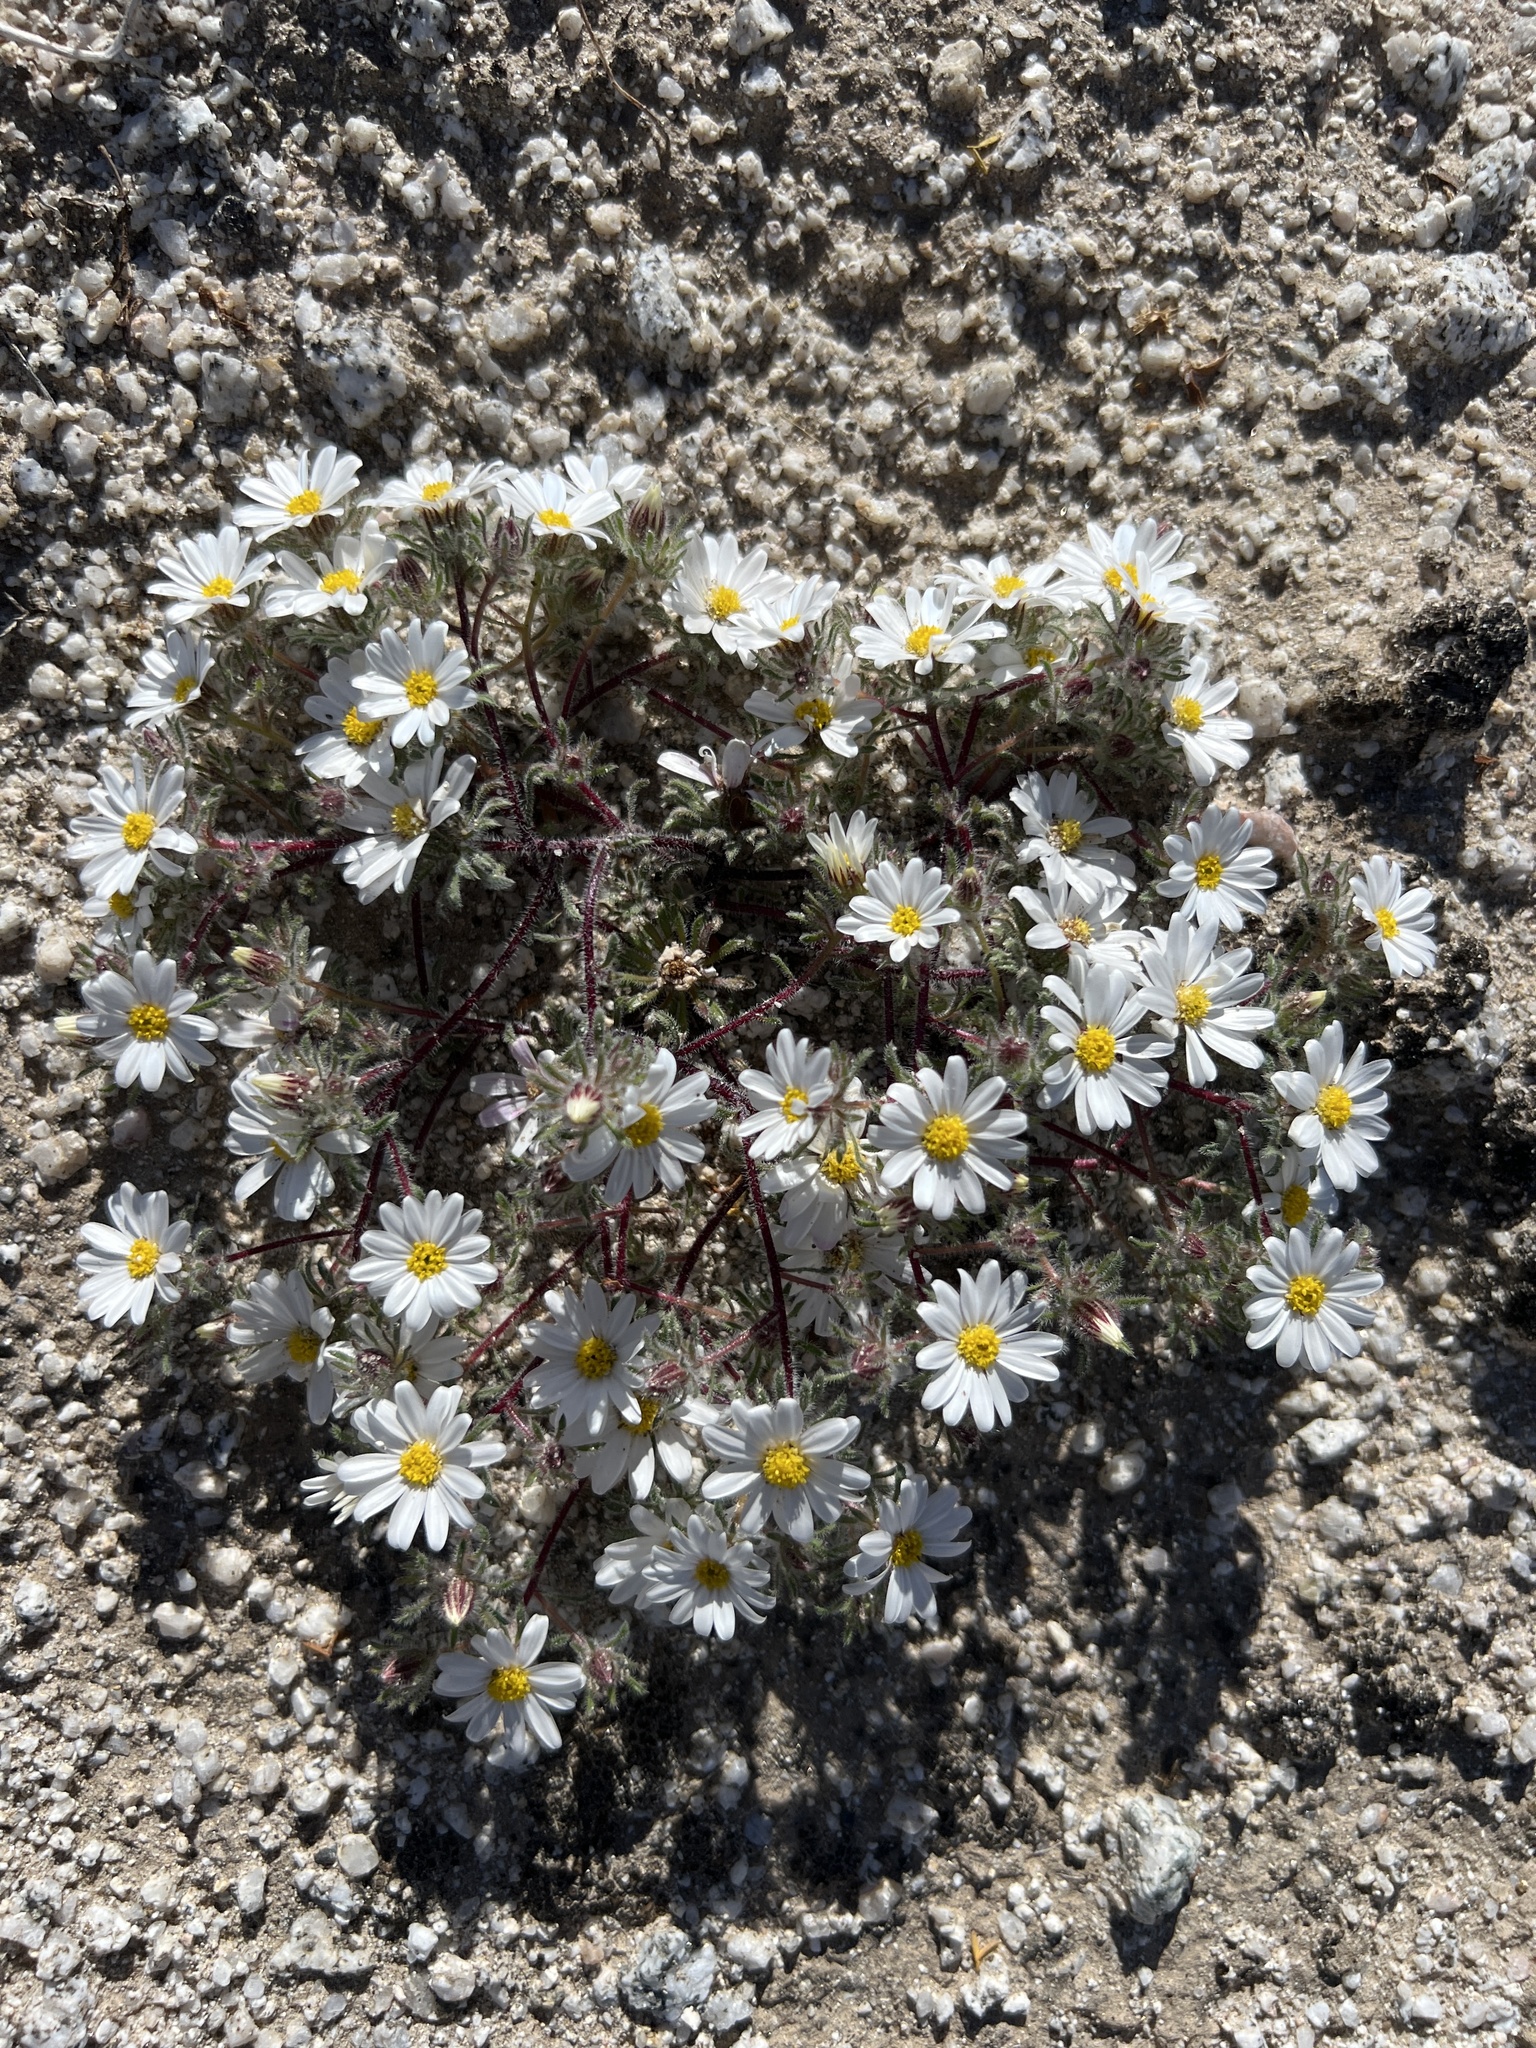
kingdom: Plantae
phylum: Tracheophyta
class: Magnoliopsida
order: Asterales
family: Asteraceae
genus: Monoptilon
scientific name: Monoptilon bellioides
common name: Bristly desertstar
